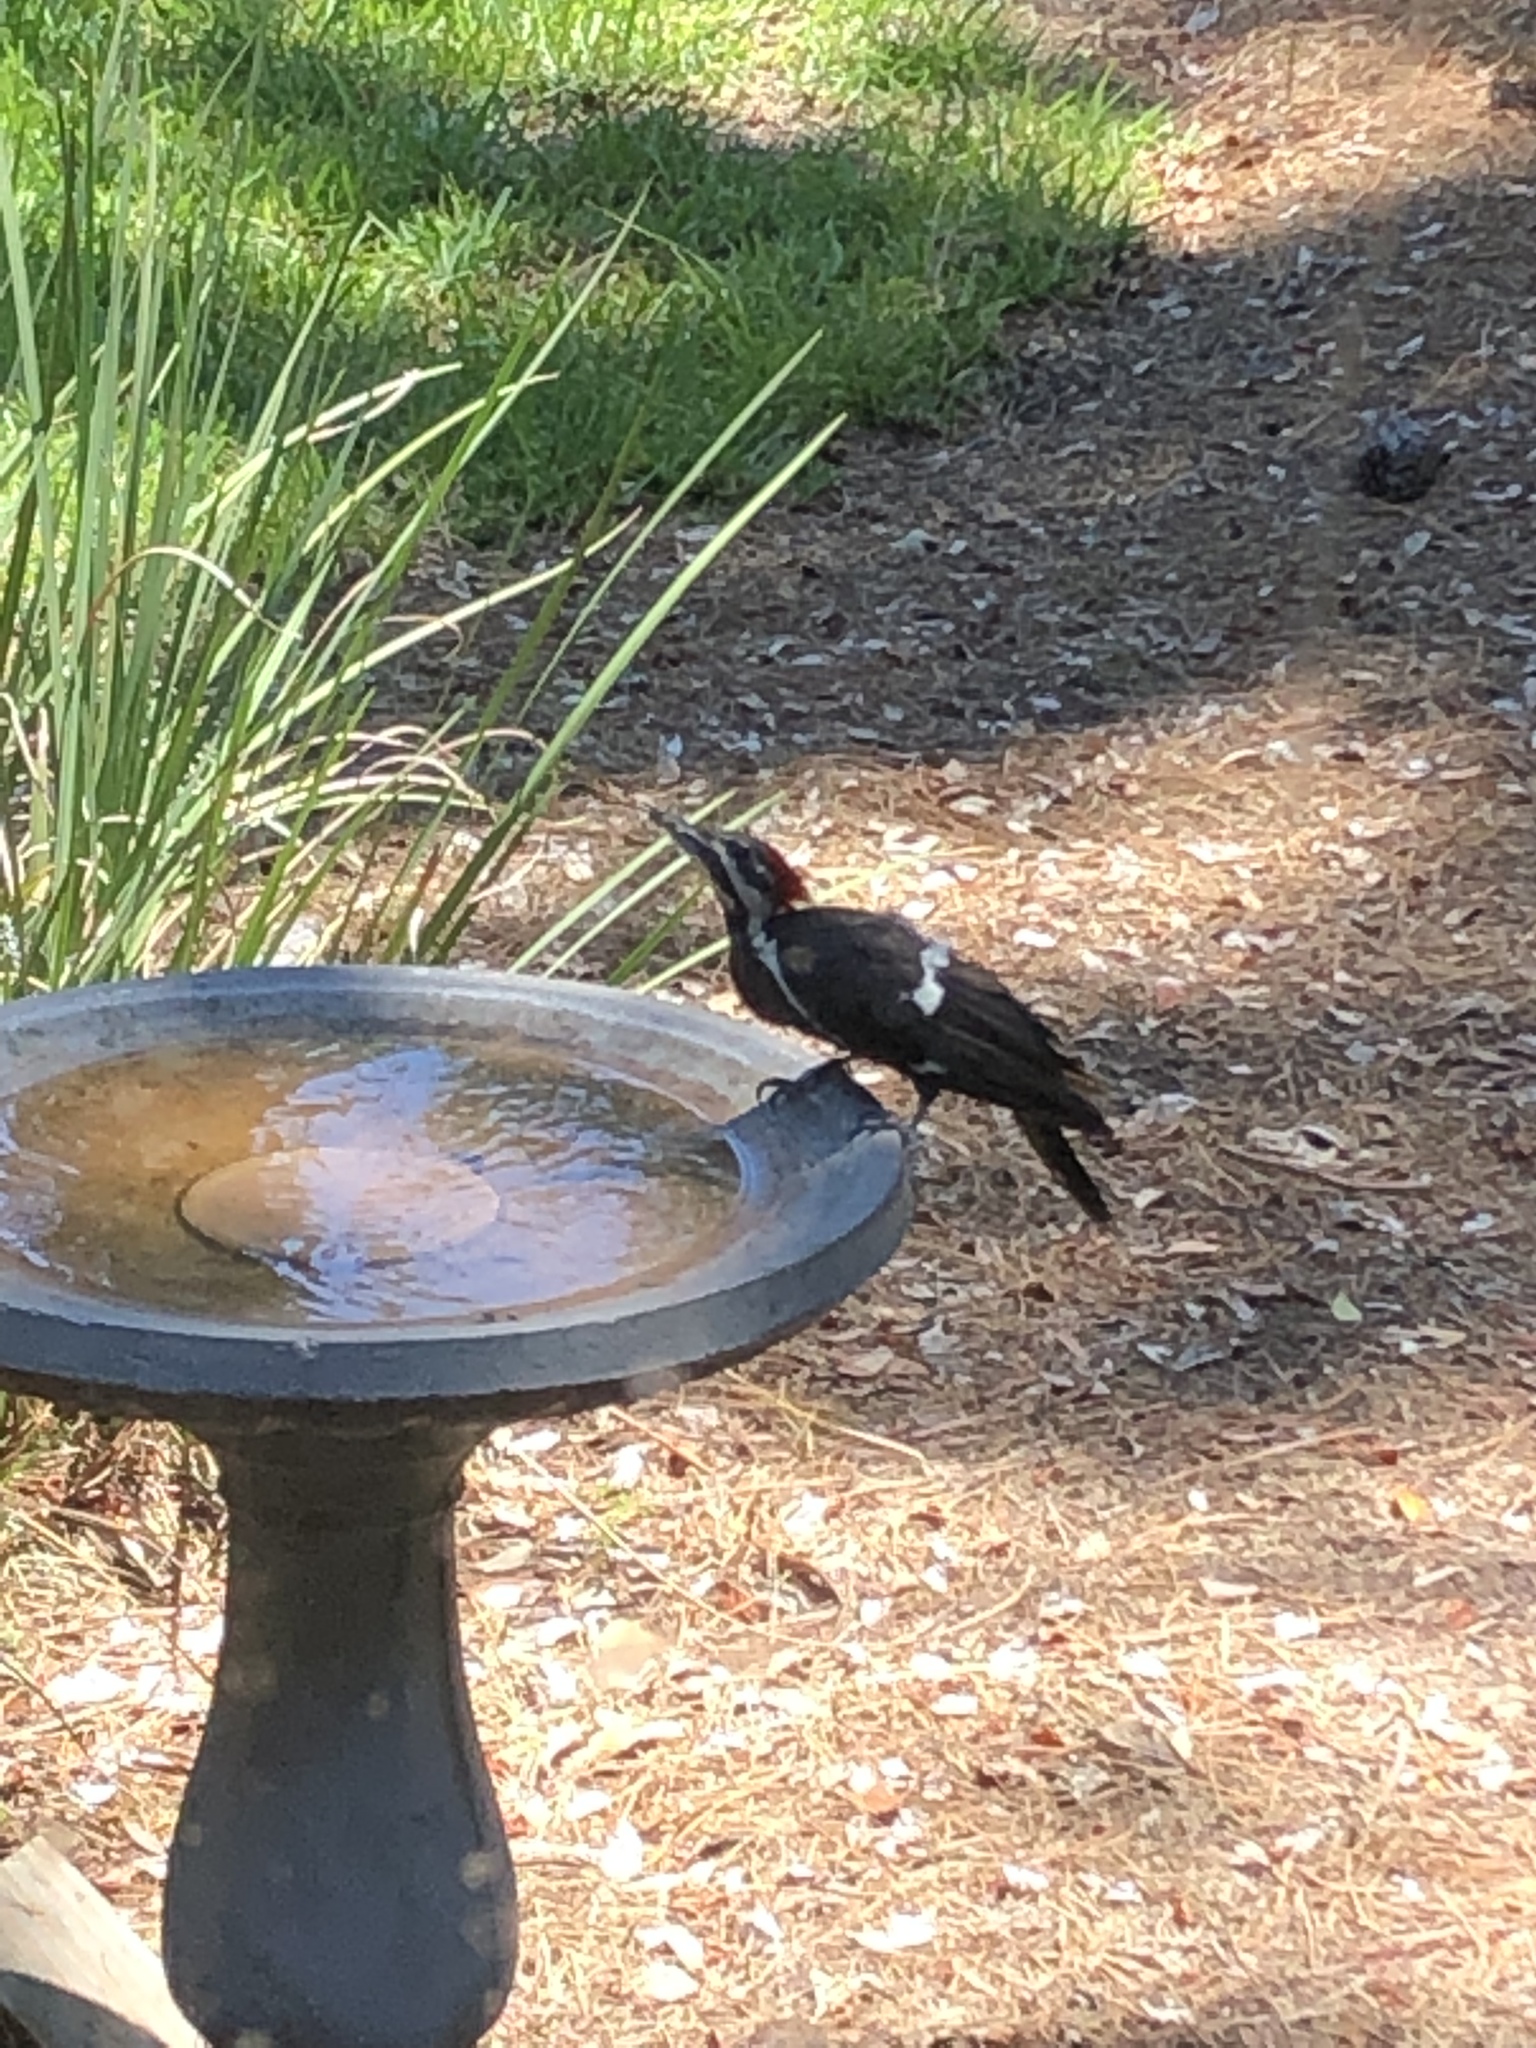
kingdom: Animalia
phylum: Chordata
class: Aves
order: Piciformes
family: Picidae
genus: Dryocopus
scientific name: Dryocopus pileatus
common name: Pileated woodpecker
